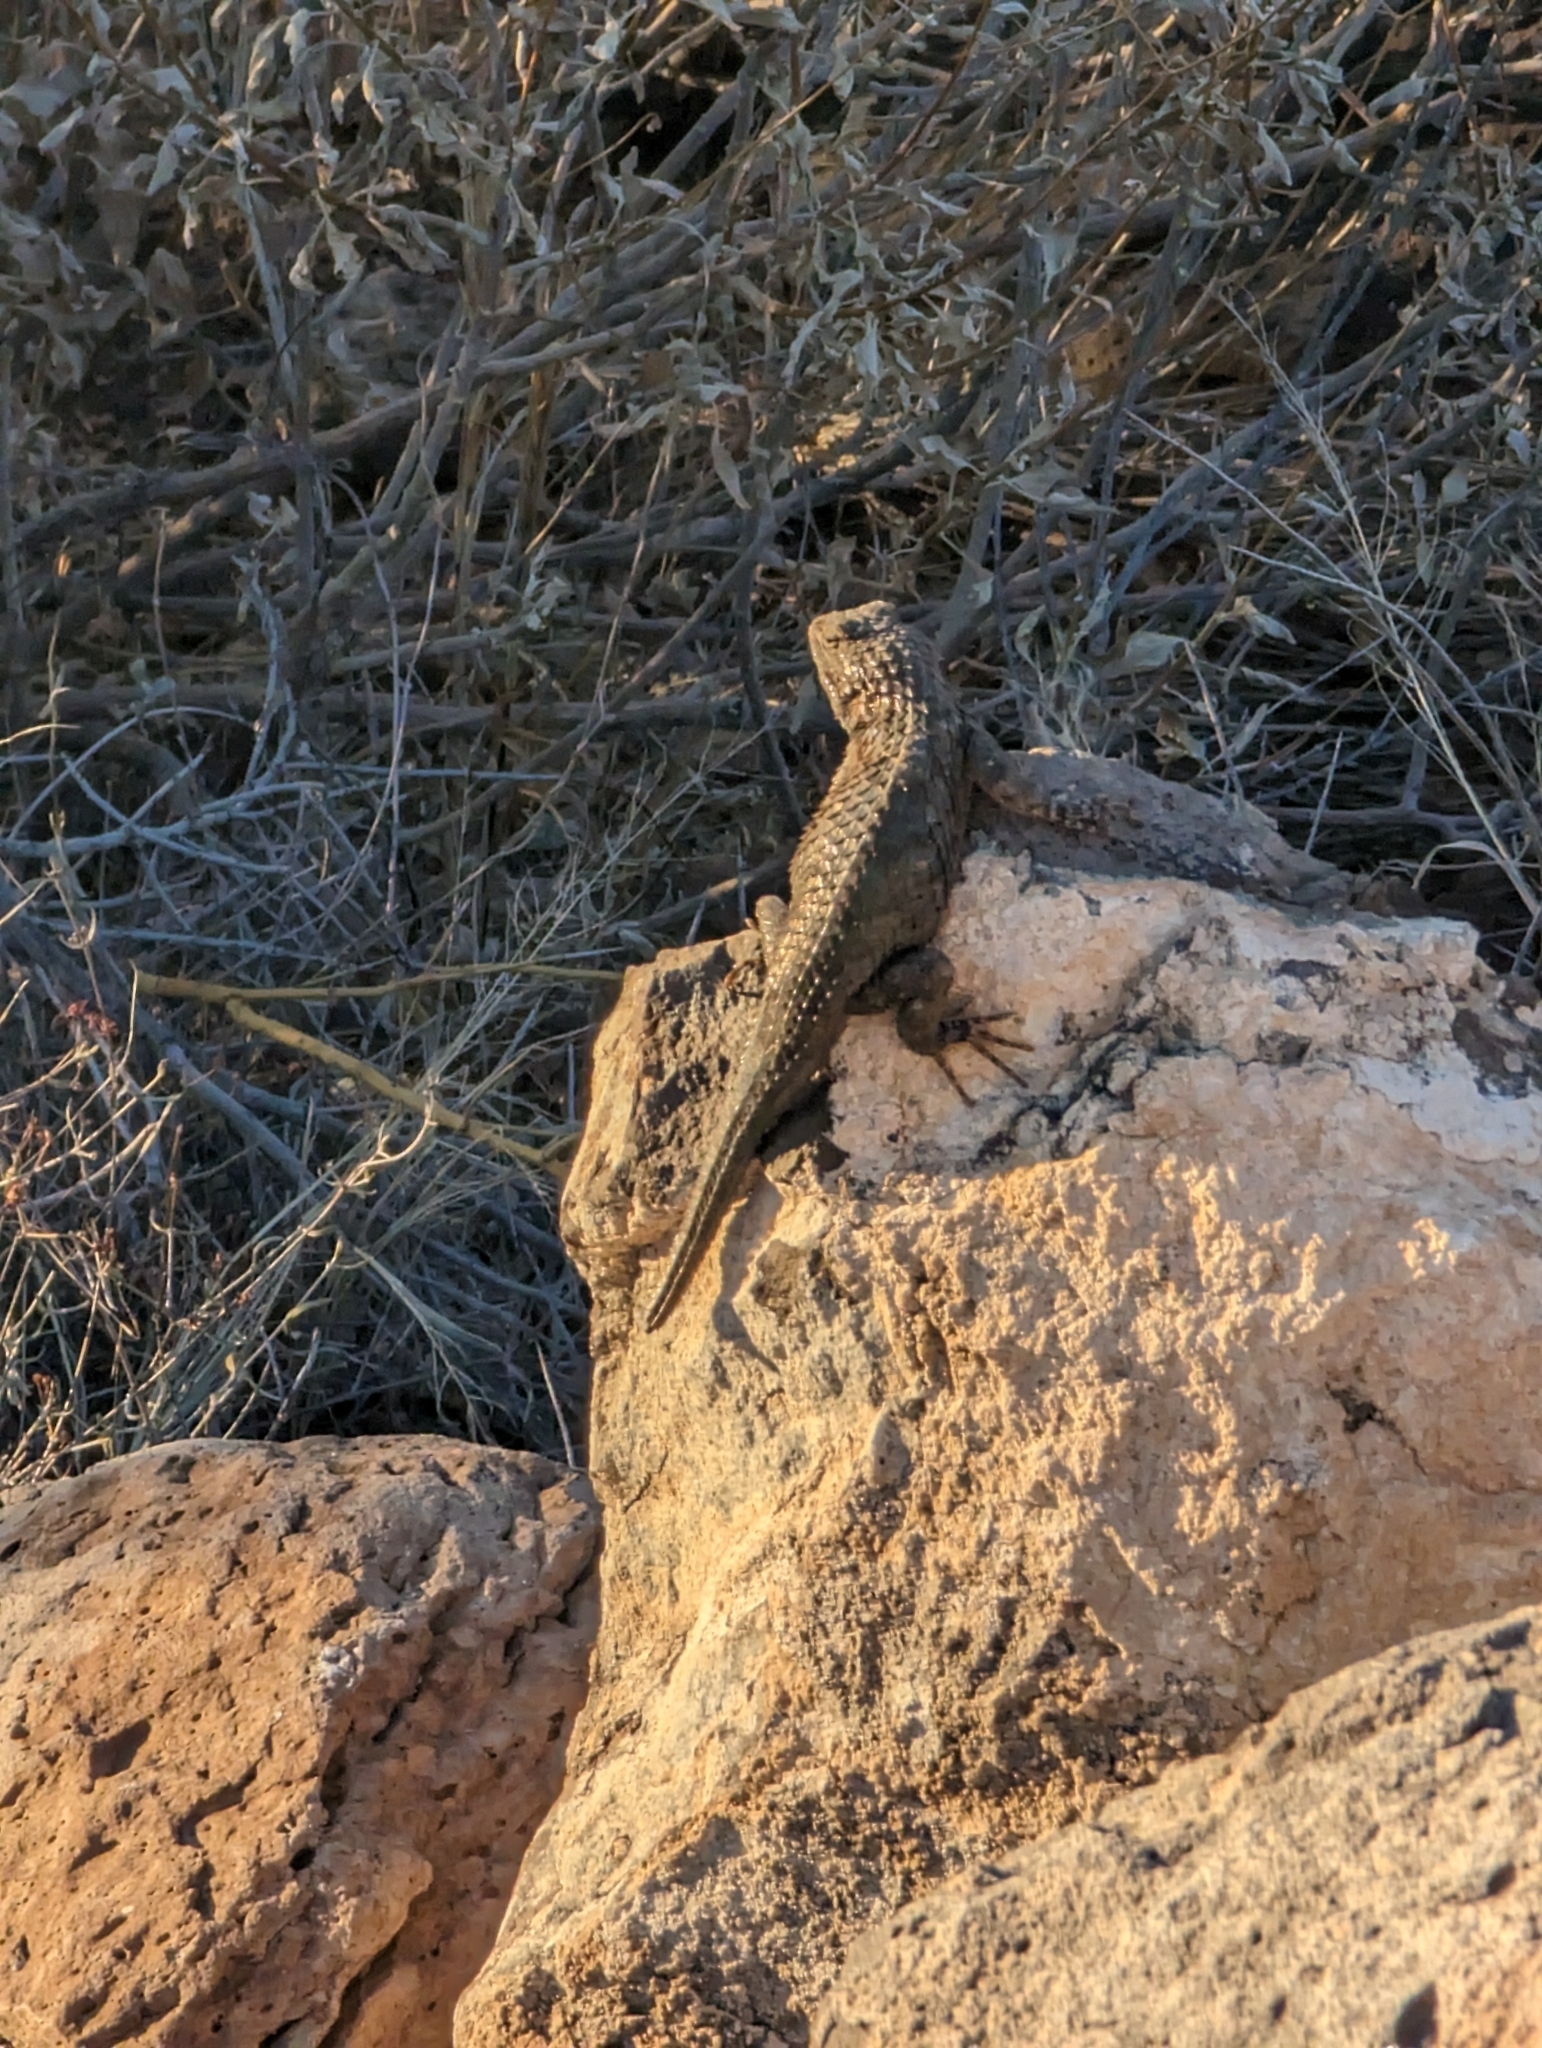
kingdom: Animalia
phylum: Chordata
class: Squamata
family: Phrynosomatidae
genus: Sceloporus
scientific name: Sceloporus magister
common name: Desert spiny lizard
